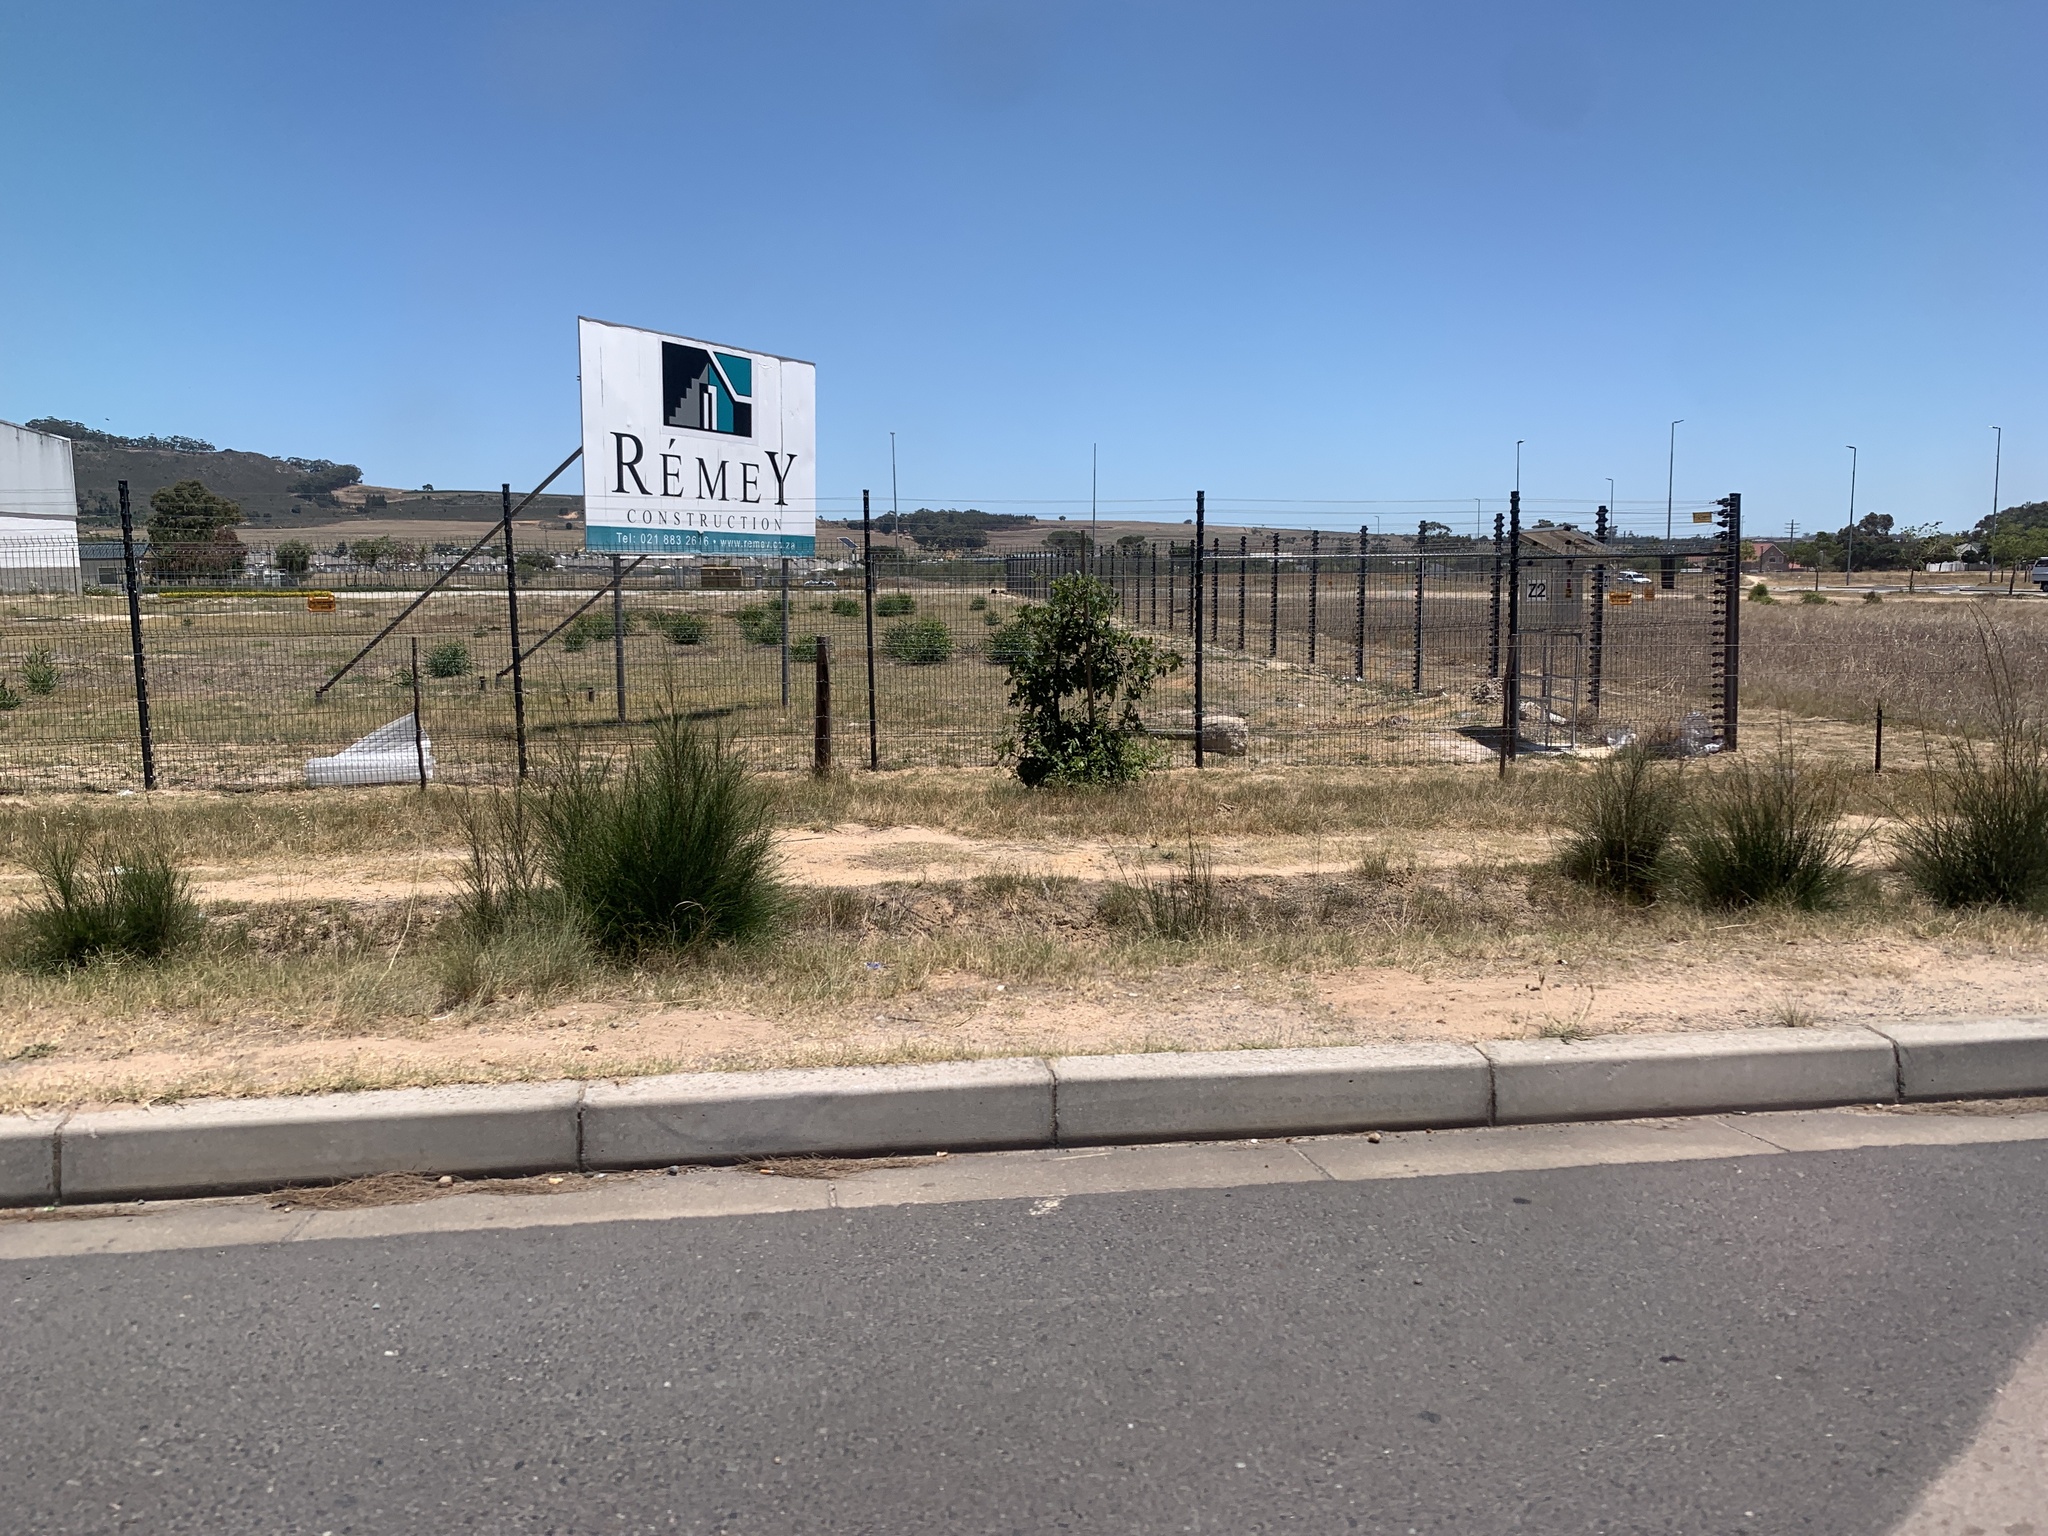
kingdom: Plantae
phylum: Tracheophyta
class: Magnoliopsida
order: Fagales
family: Casuarinaceae
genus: Casuarina
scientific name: Casuarina cunninghamiana
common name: River sheoak
